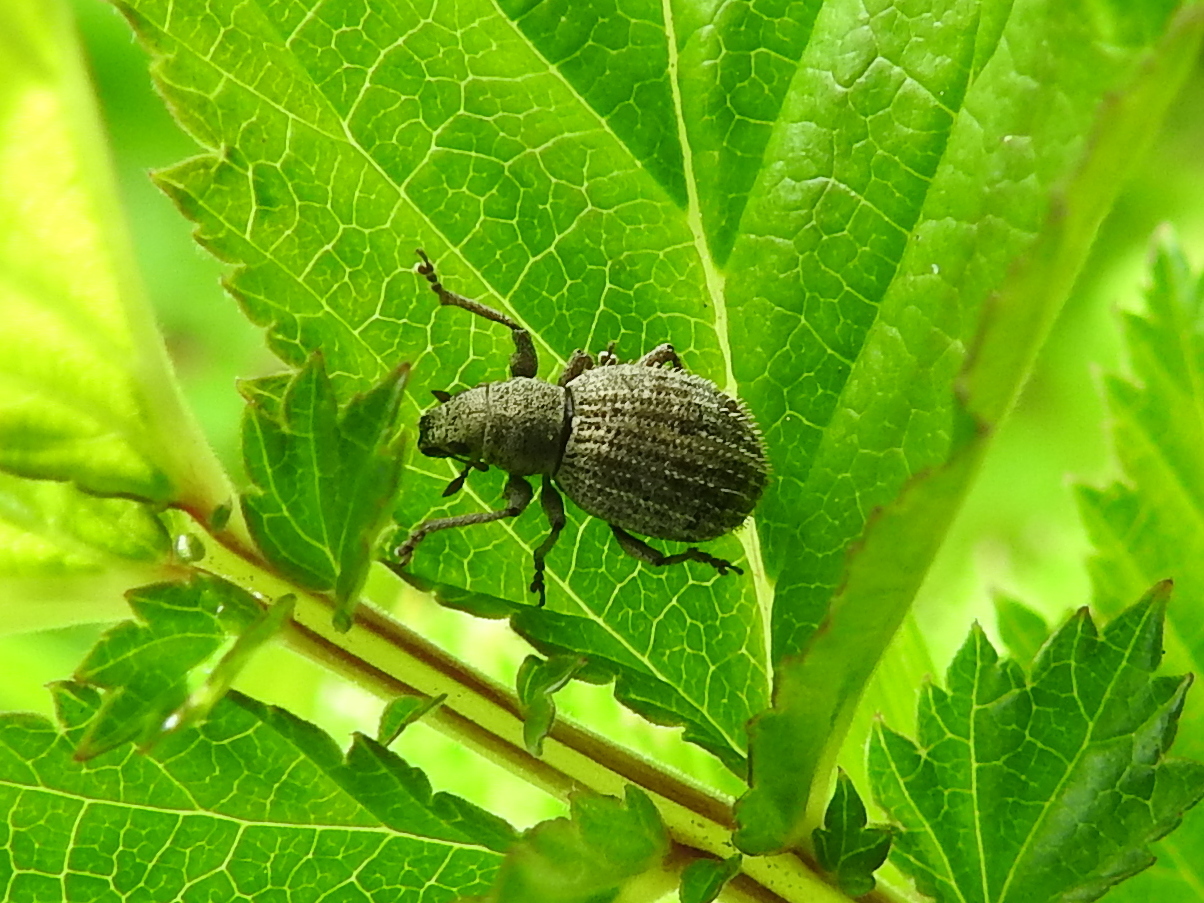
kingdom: Animalia
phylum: Arthropoda
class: Insecta
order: Coleoptera
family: Curculionidae
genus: Sciaphilus
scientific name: Sciaphilus asperatus
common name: Weevil
